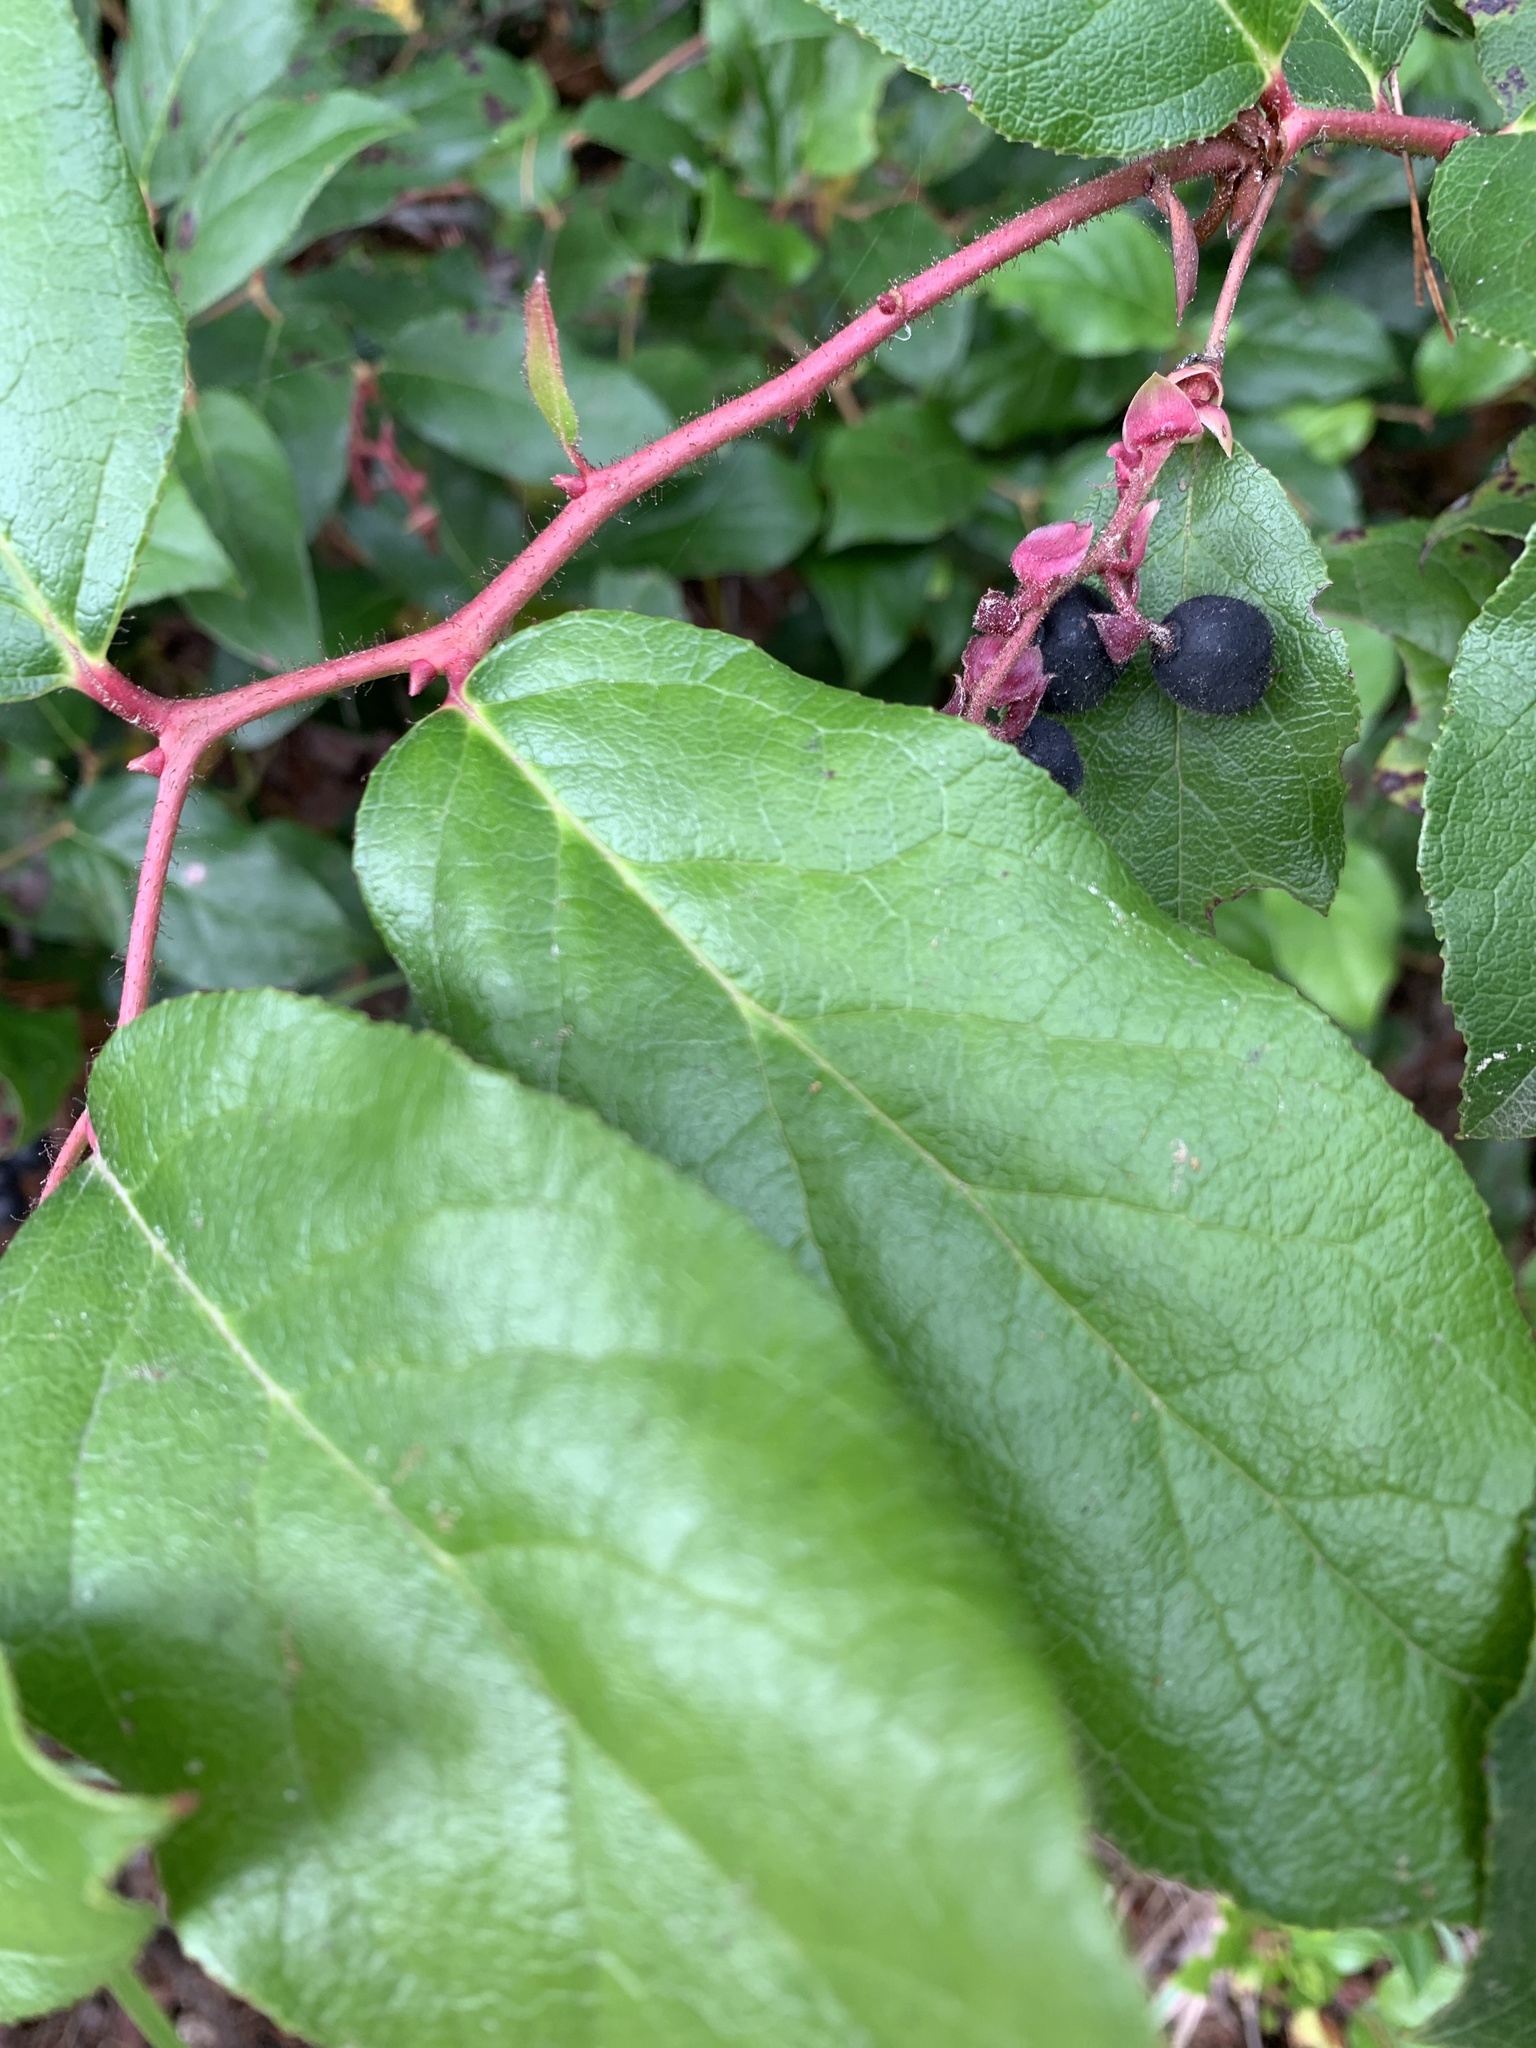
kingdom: Plantae
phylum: Tracheophyta
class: Magnoliopsida
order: Ericales
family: Ericaceae
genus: Gaultheria
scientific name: Gaultheria shallon
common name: Shallon
